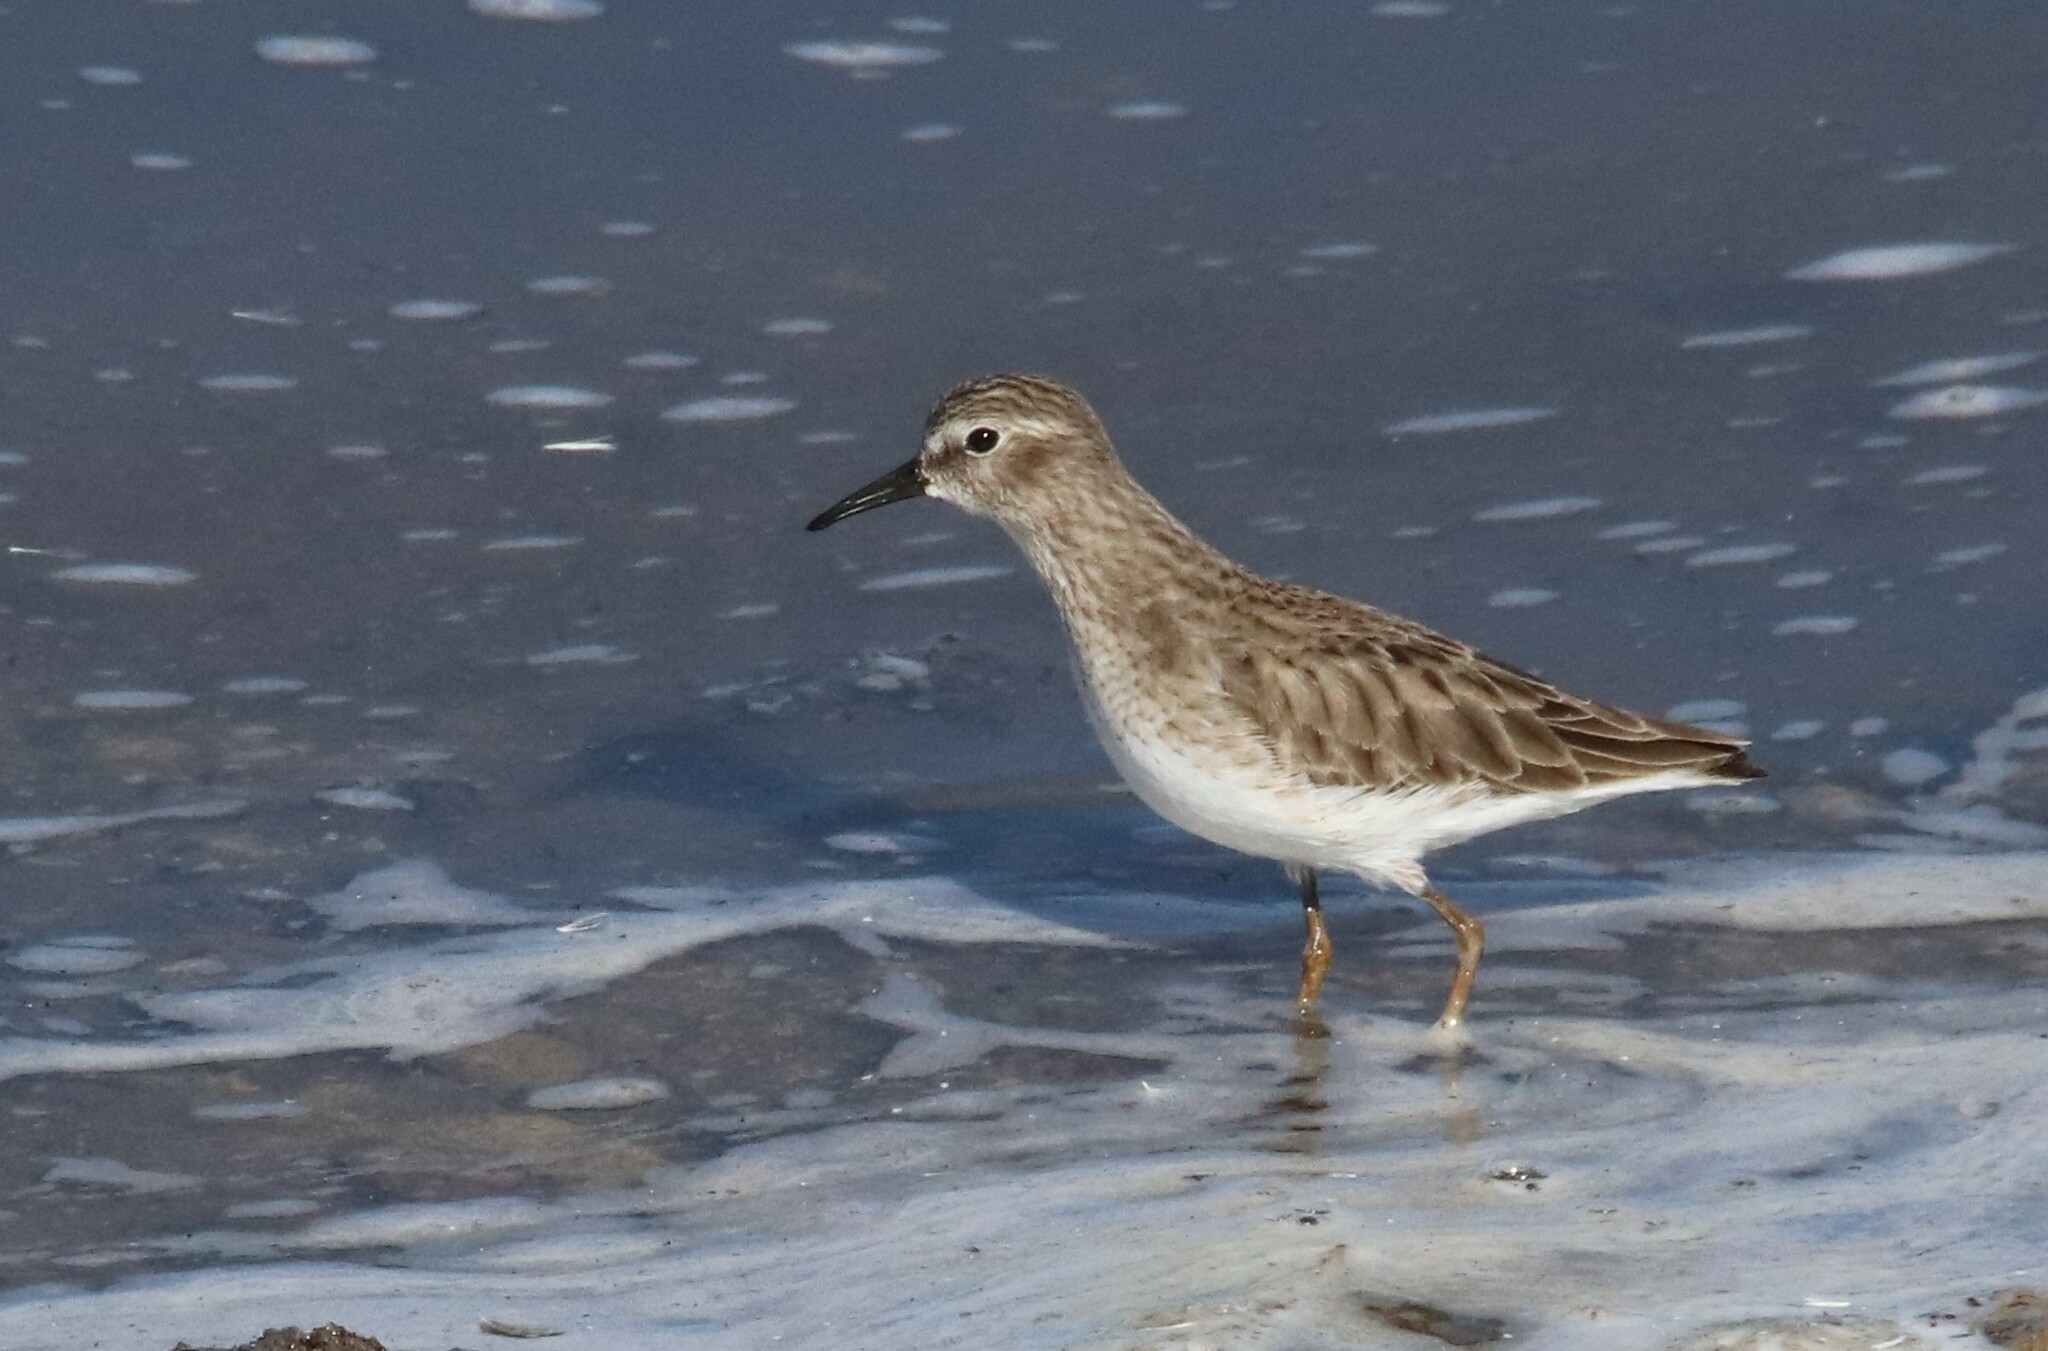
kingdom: Animalia
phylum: Chordata
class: Aves
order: Charadriiformes
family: Scolopacidae
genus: Calidris
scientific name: Calidris minutilla
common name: Least sandpiper
